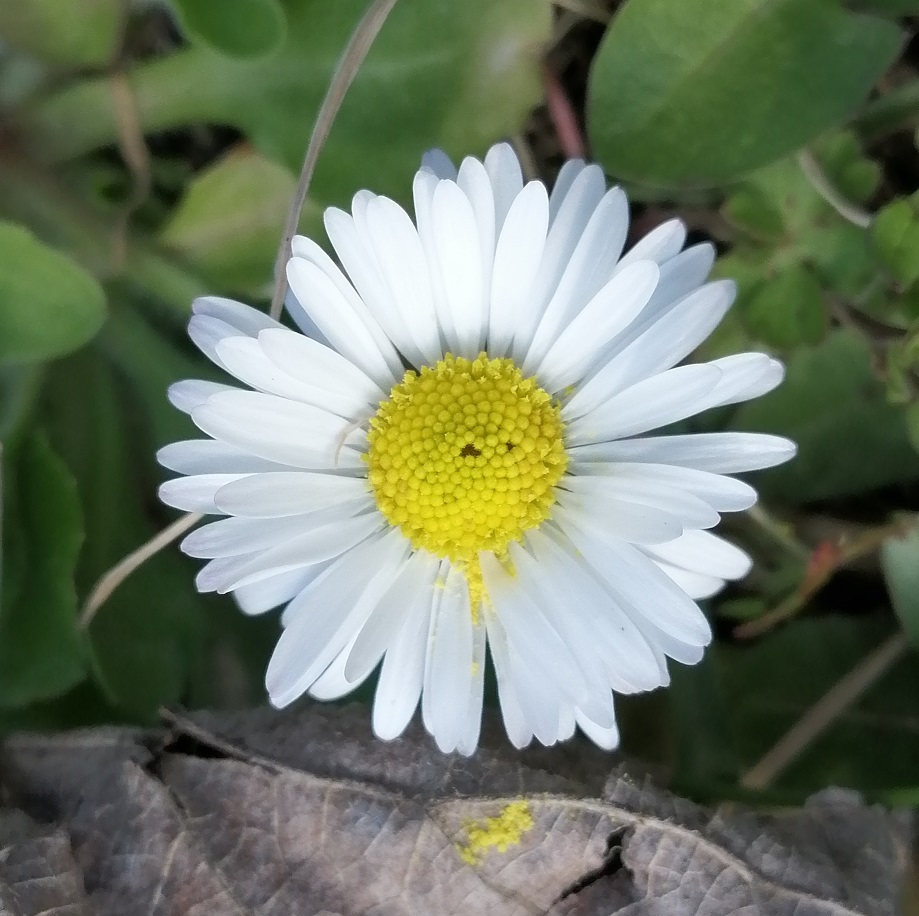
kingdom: Plantae
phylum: Tracheophyta
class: Magnoliopsida
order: Asterales
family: Asteraceae
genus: Bellis
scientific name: Bellis perennis
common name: Lawndaisy
